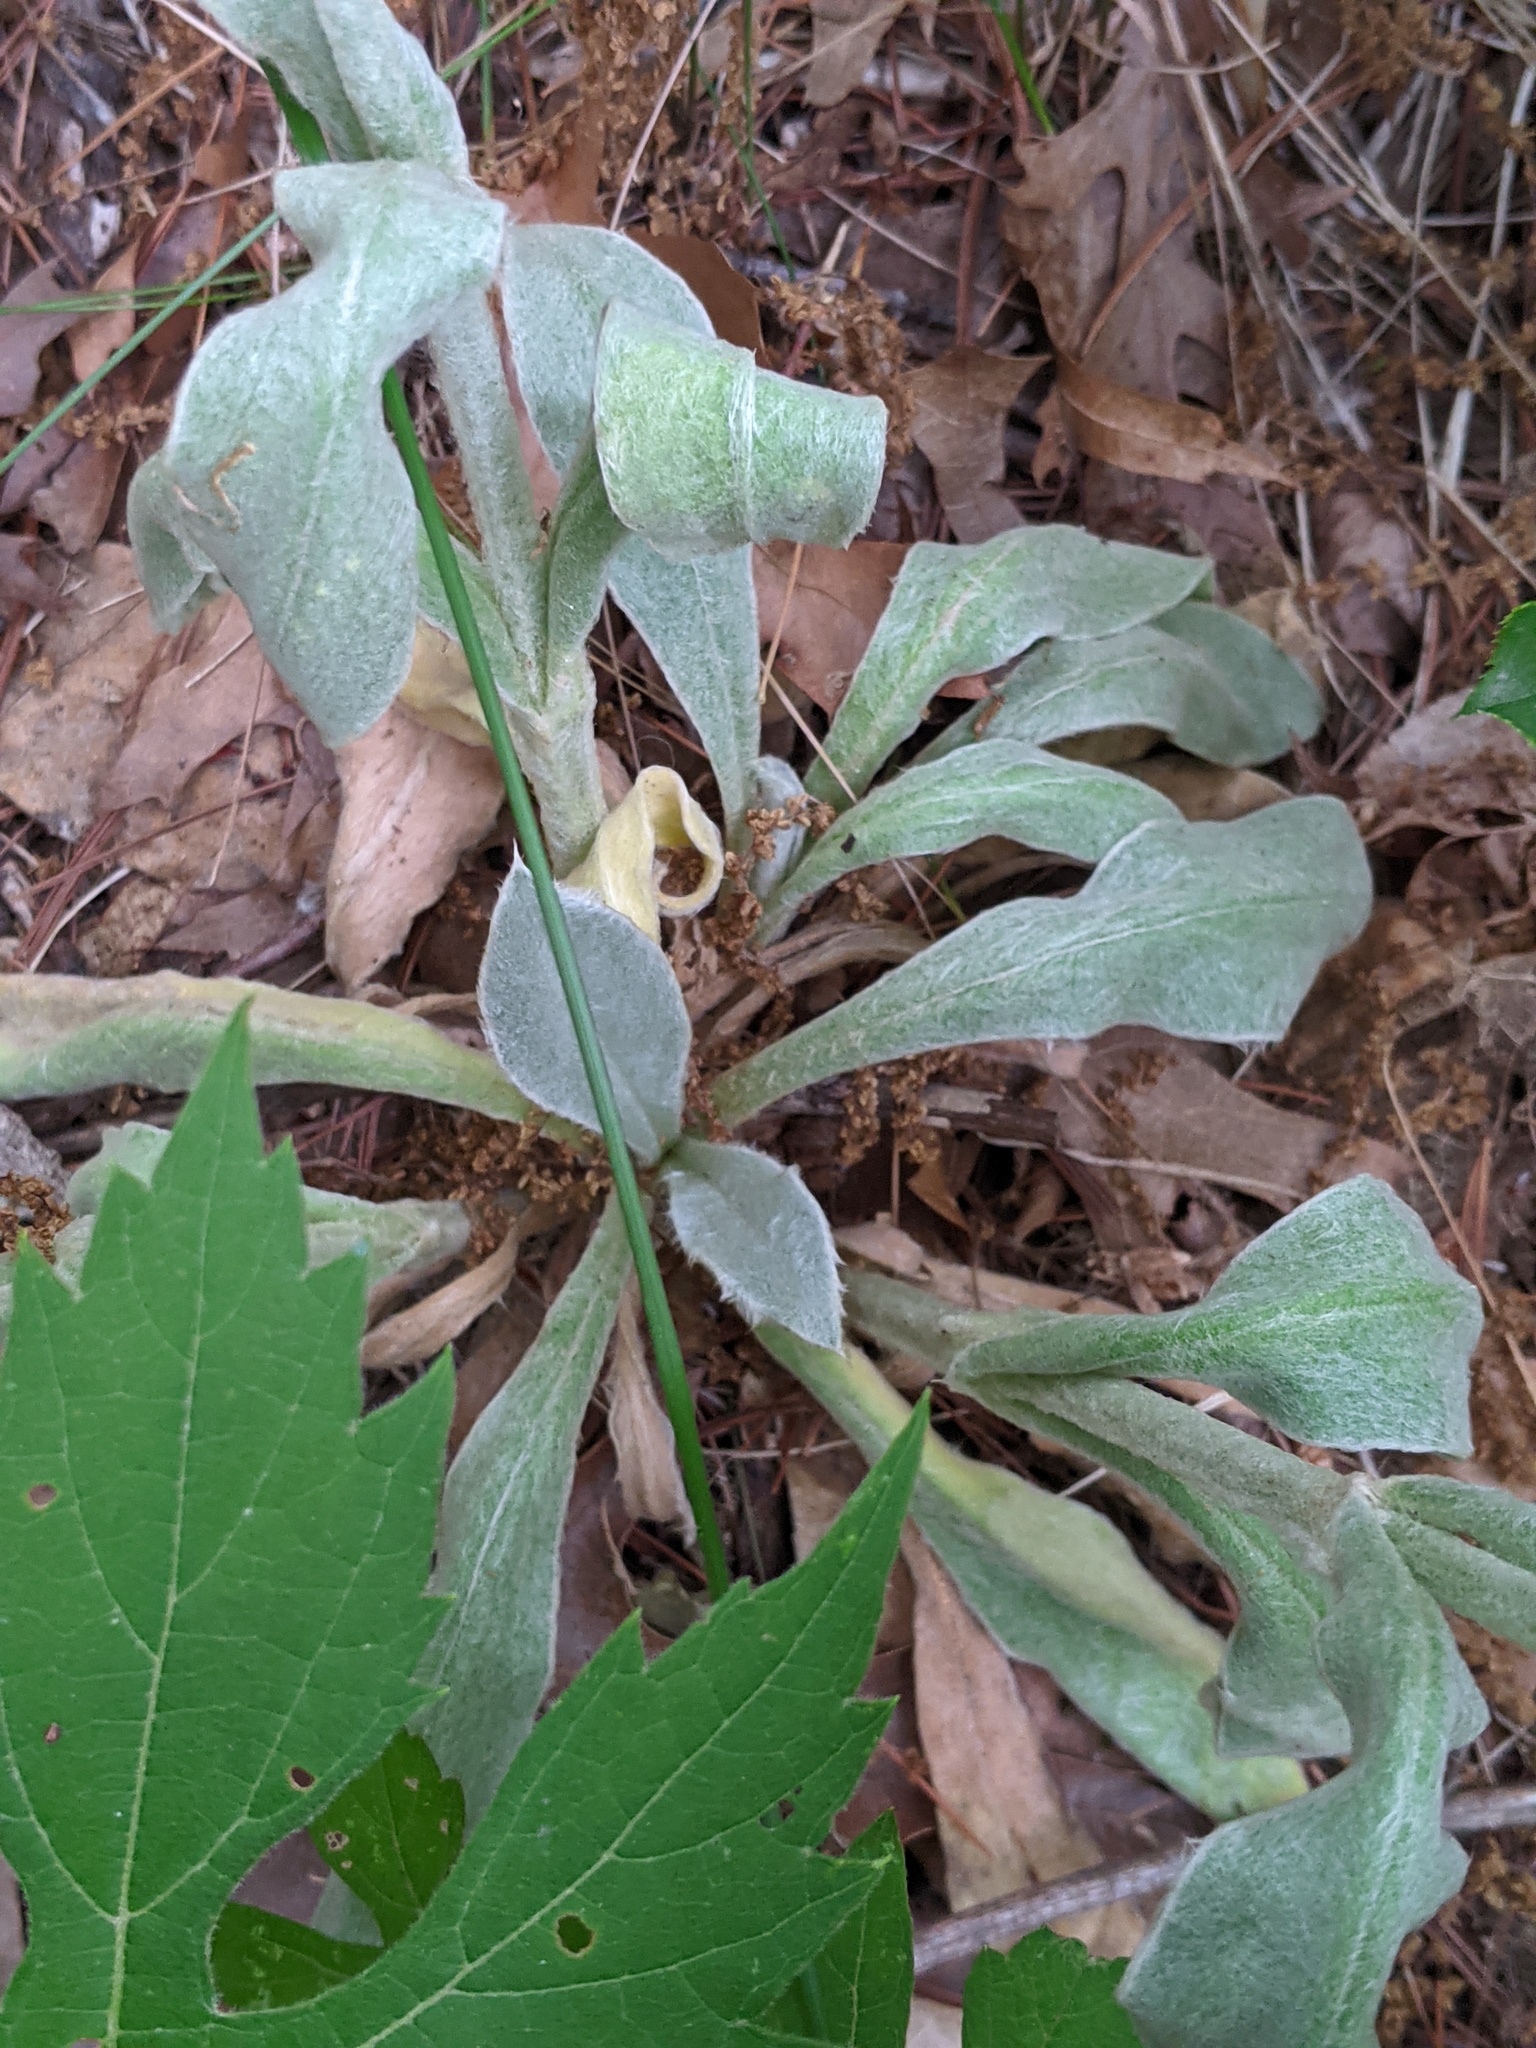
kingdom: Plantae
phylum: Tracheophyta
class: Magnoliopsida
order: Caryophyllales
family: Caryophyllaceae
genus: Silene
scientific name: Silene coronaria
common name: Rose campion
